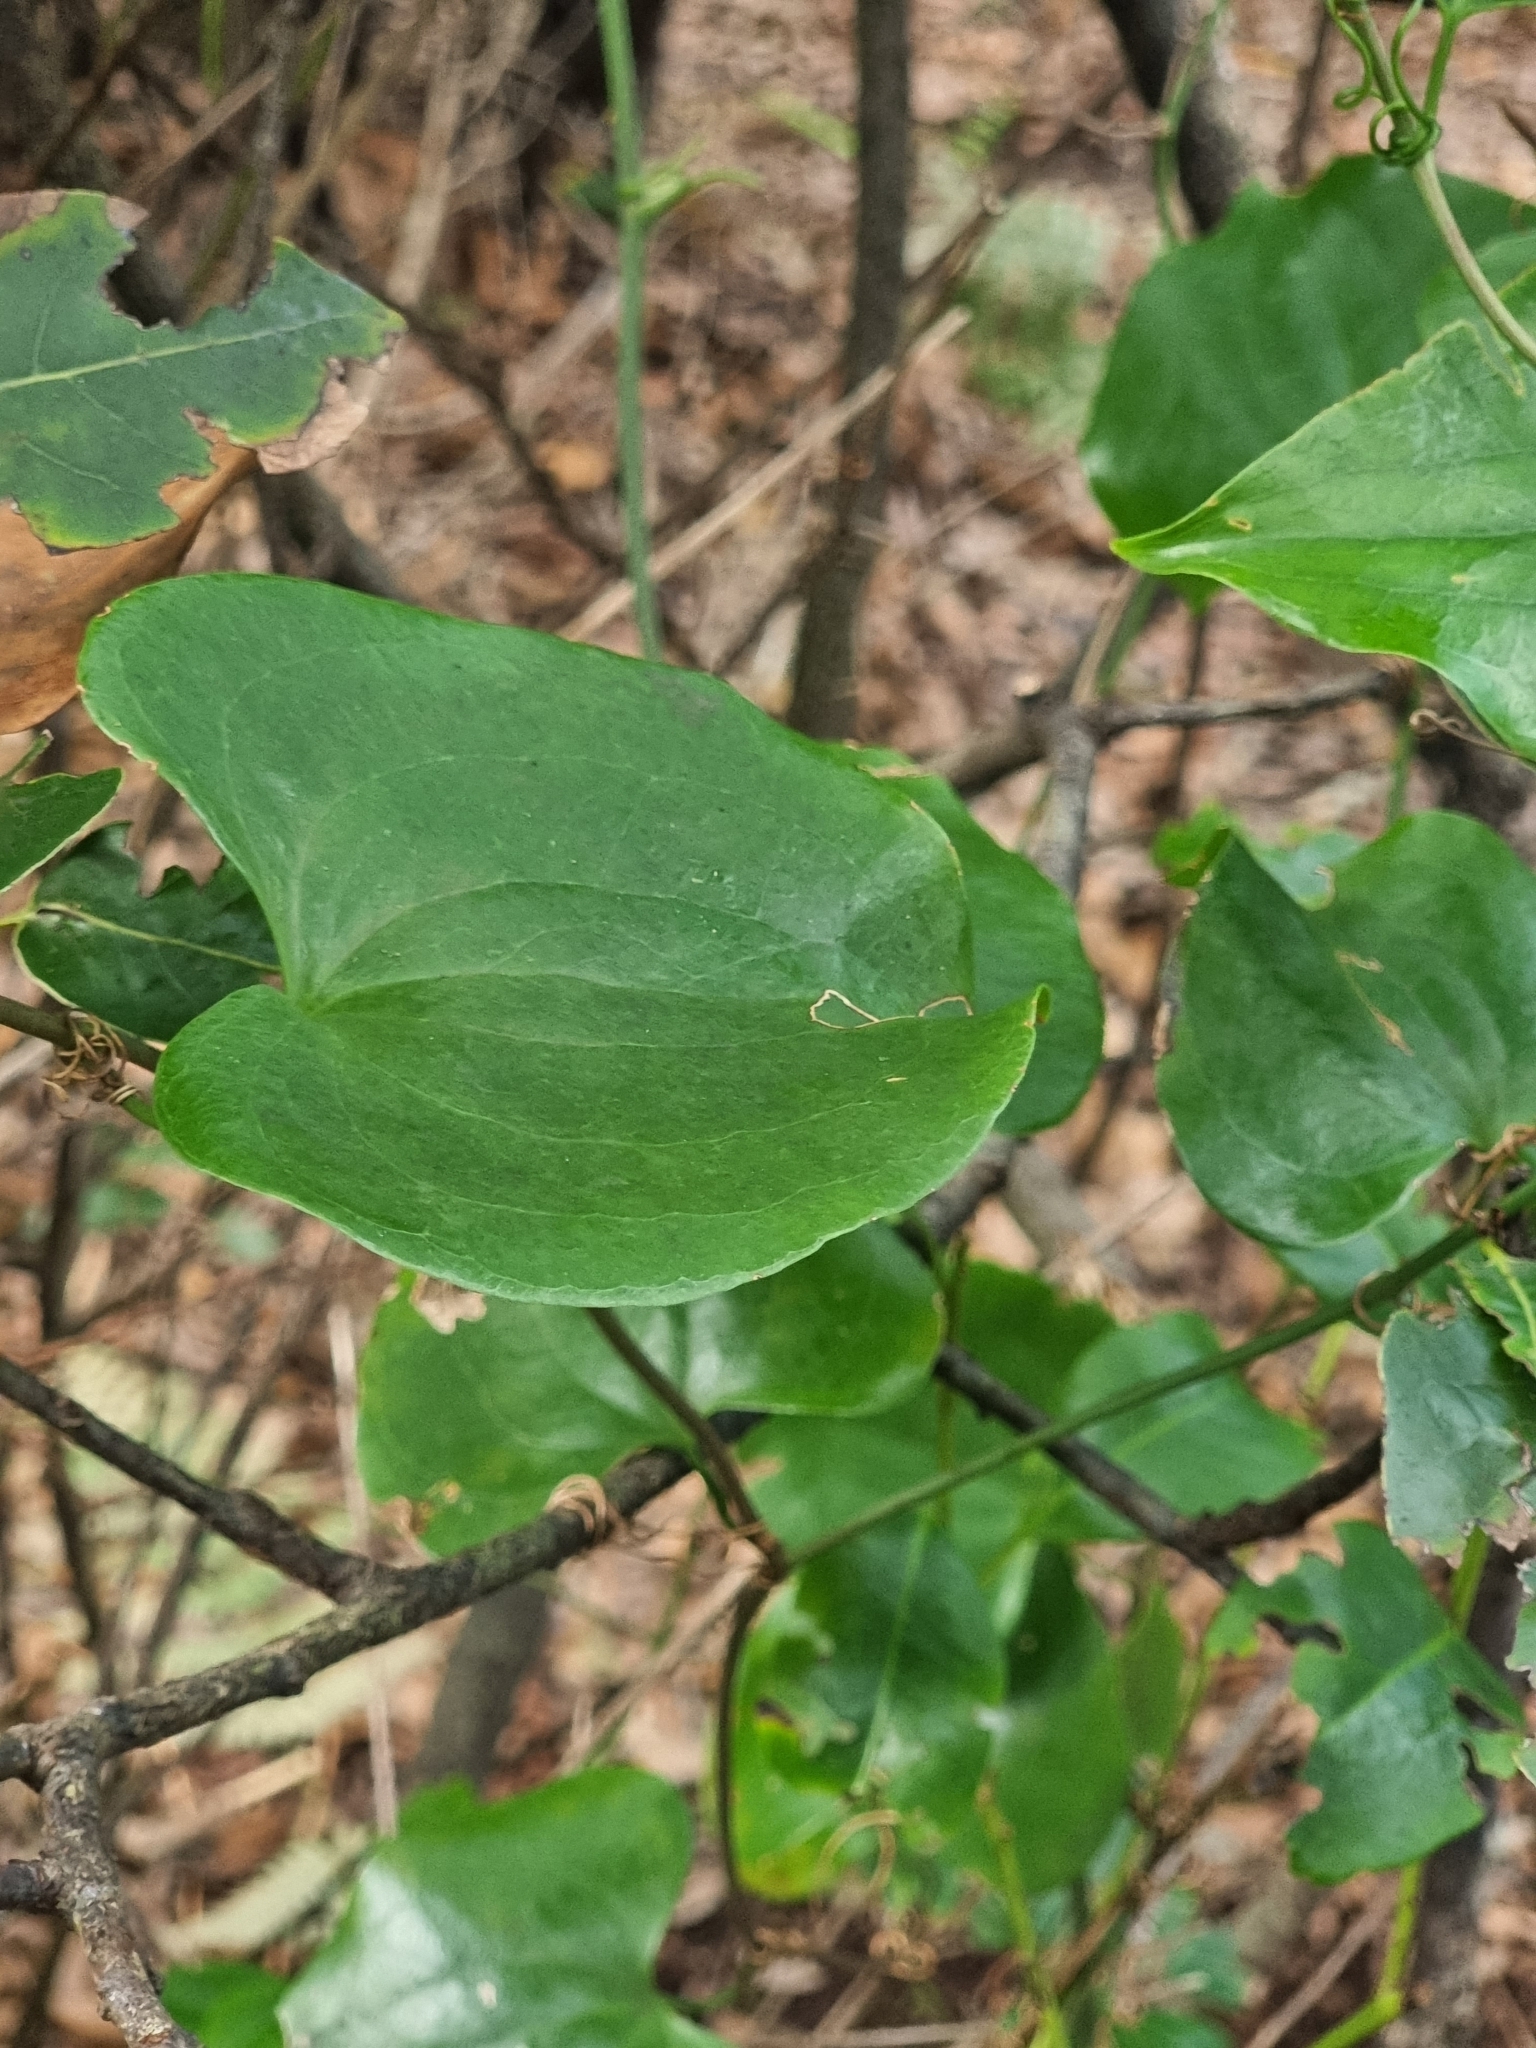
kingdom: Plantae
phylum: Tracheophyta
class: Liliopsida
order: Liliales
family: Smilacaceae
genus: Smilax
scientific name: Smilax aspera
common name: Common smilax
